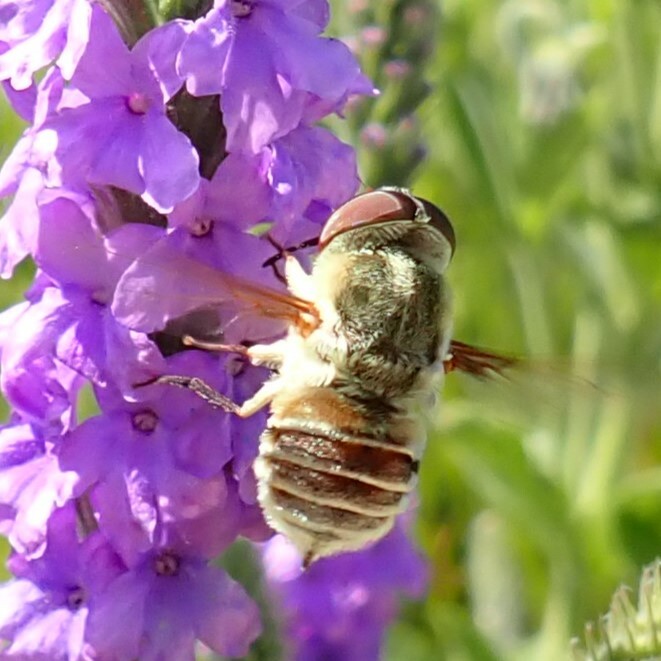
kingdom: Animalia
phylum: Arthropoda
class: Insecta
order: Diptera
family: Nemestrinidae
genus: Neorhynchocephalus
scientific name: Neorhynchocephalus volaticus
